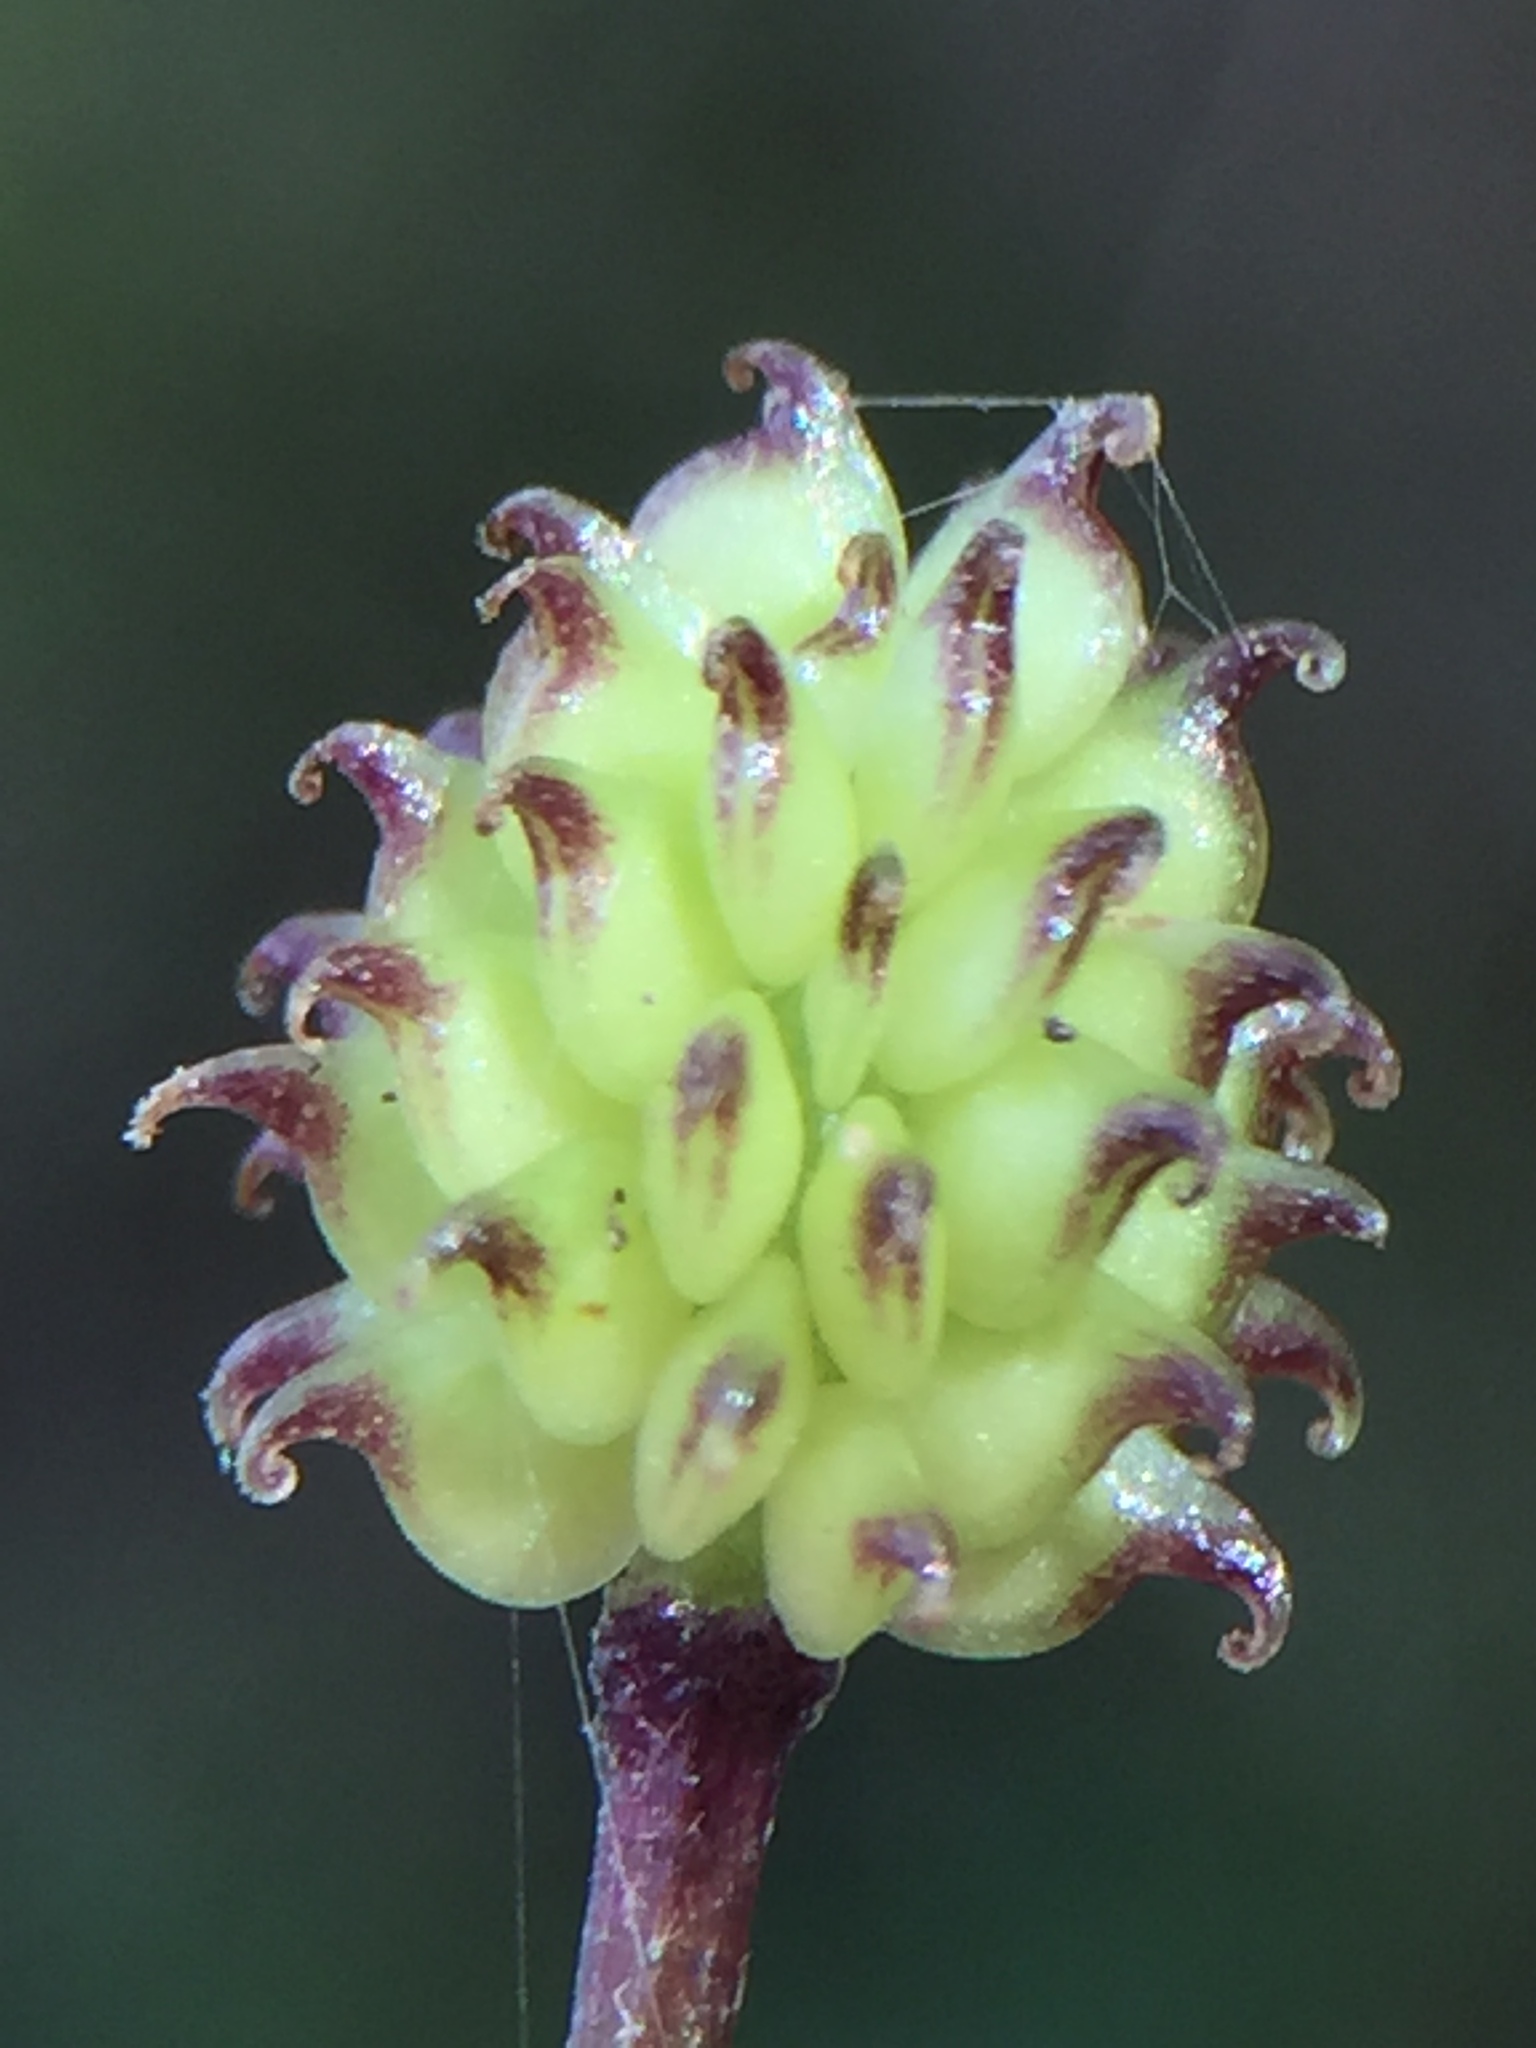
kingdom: Plantae
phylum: Tracheophyta
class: Magnoliopsida
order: Ranunculales
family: Ranunculaceae
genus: Ranunculus
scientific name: Ranunculus reflexus
